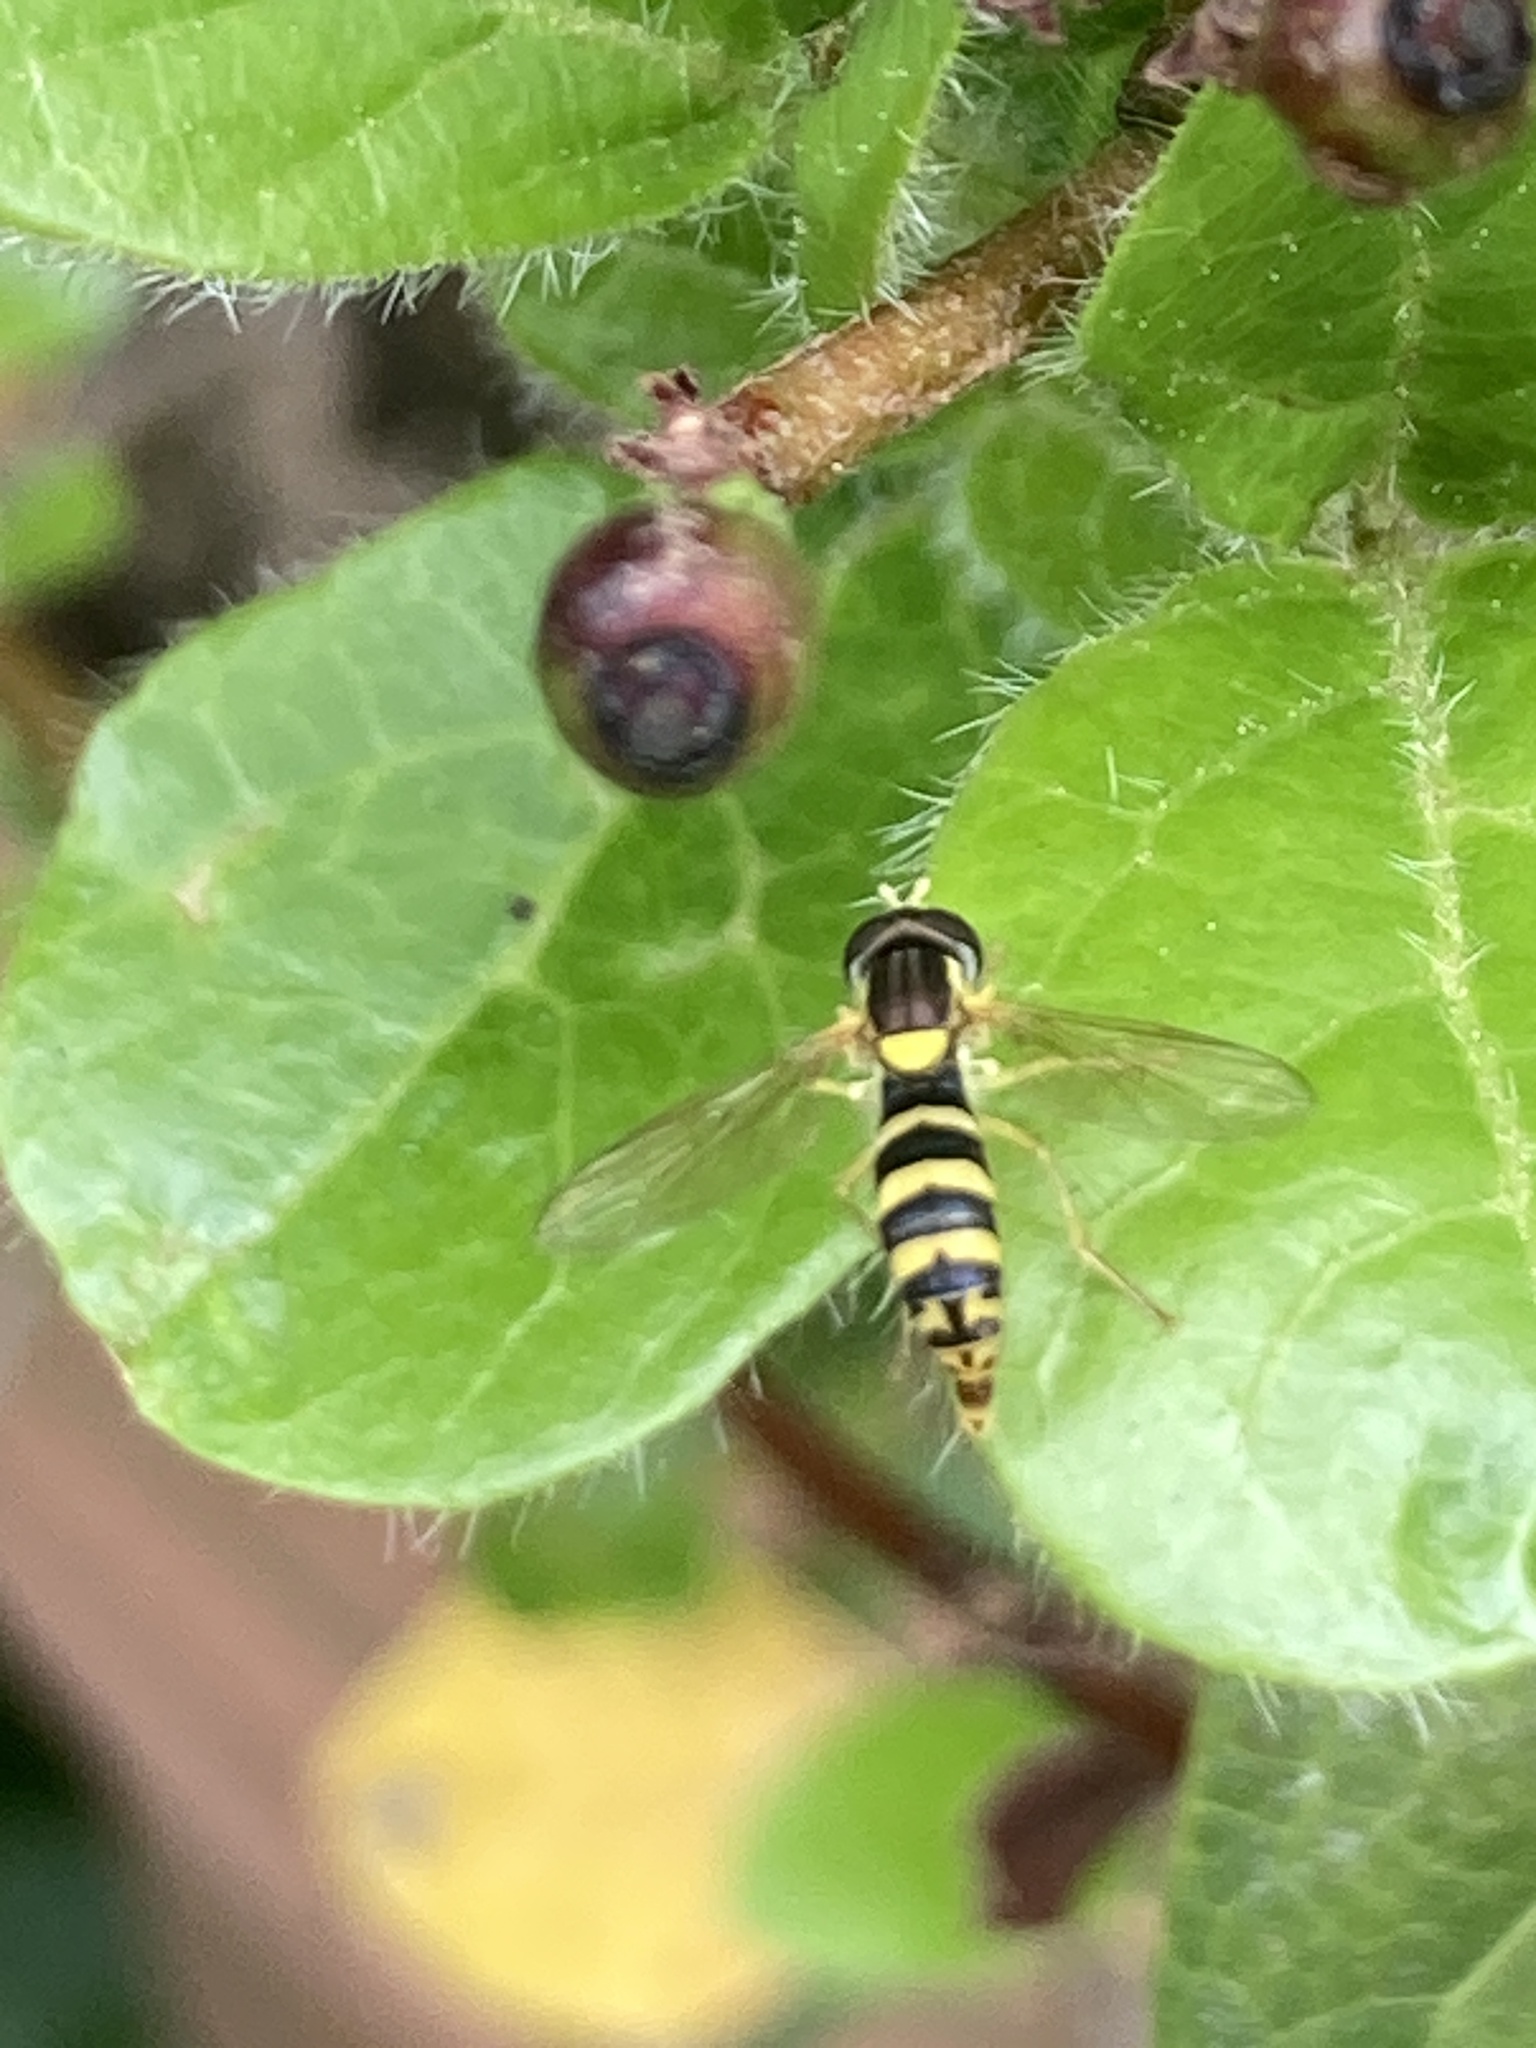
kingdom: Animalia
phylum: Arthropoda
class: Insecta
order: Diptera
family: Syrphidae
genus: Sphaerophoria
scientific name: Sphaerophoria
